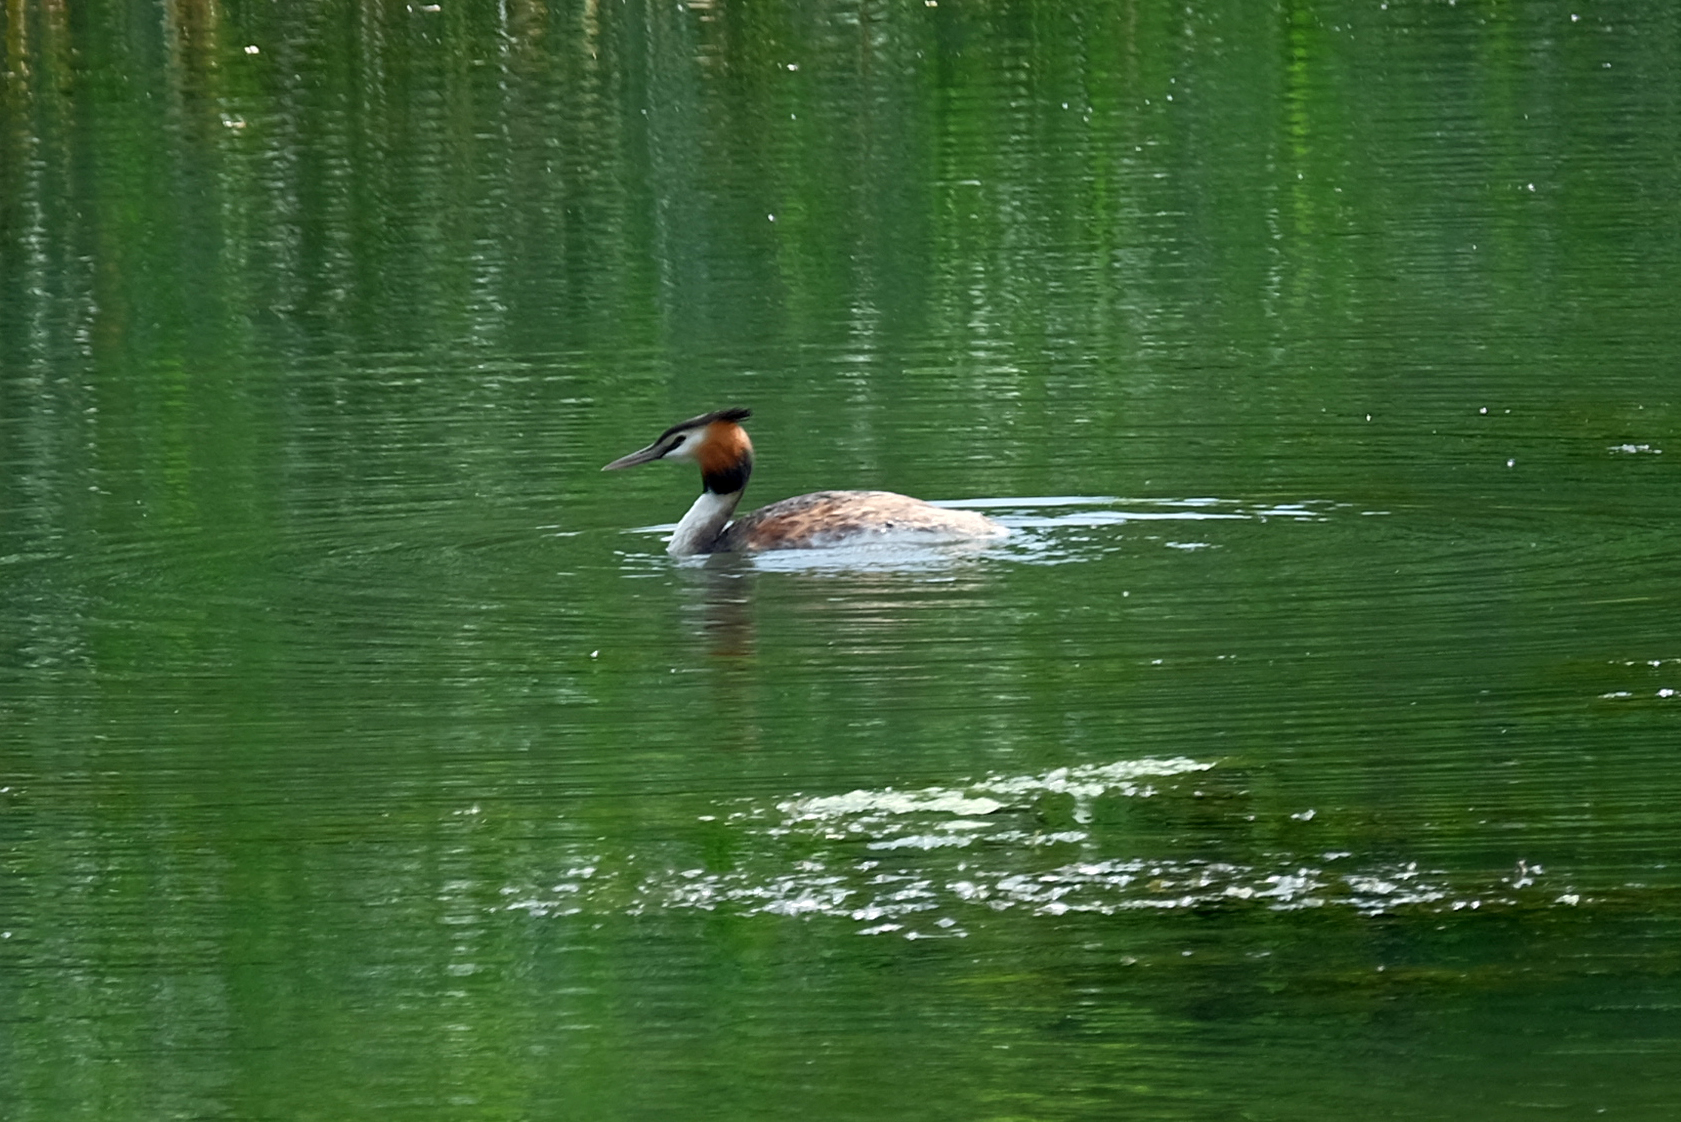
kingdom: Animalia
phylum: Chordata
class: Aves
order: Podicipediformes
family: Podicipedidae
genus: Podiceps
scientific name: Podiceps cristatus
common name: Great crested grebe
